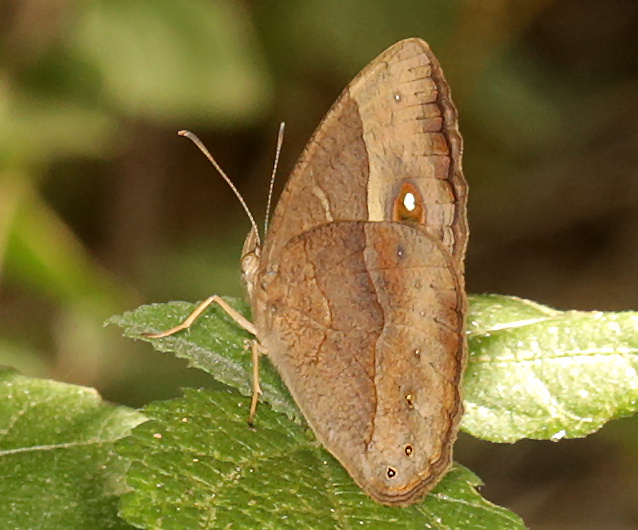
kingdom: Animalia
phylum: Arthropoda
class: Insecta
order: Lepidoptera
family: Nymphalidae
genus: Mycalesis
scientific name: Mycalesis anynana
